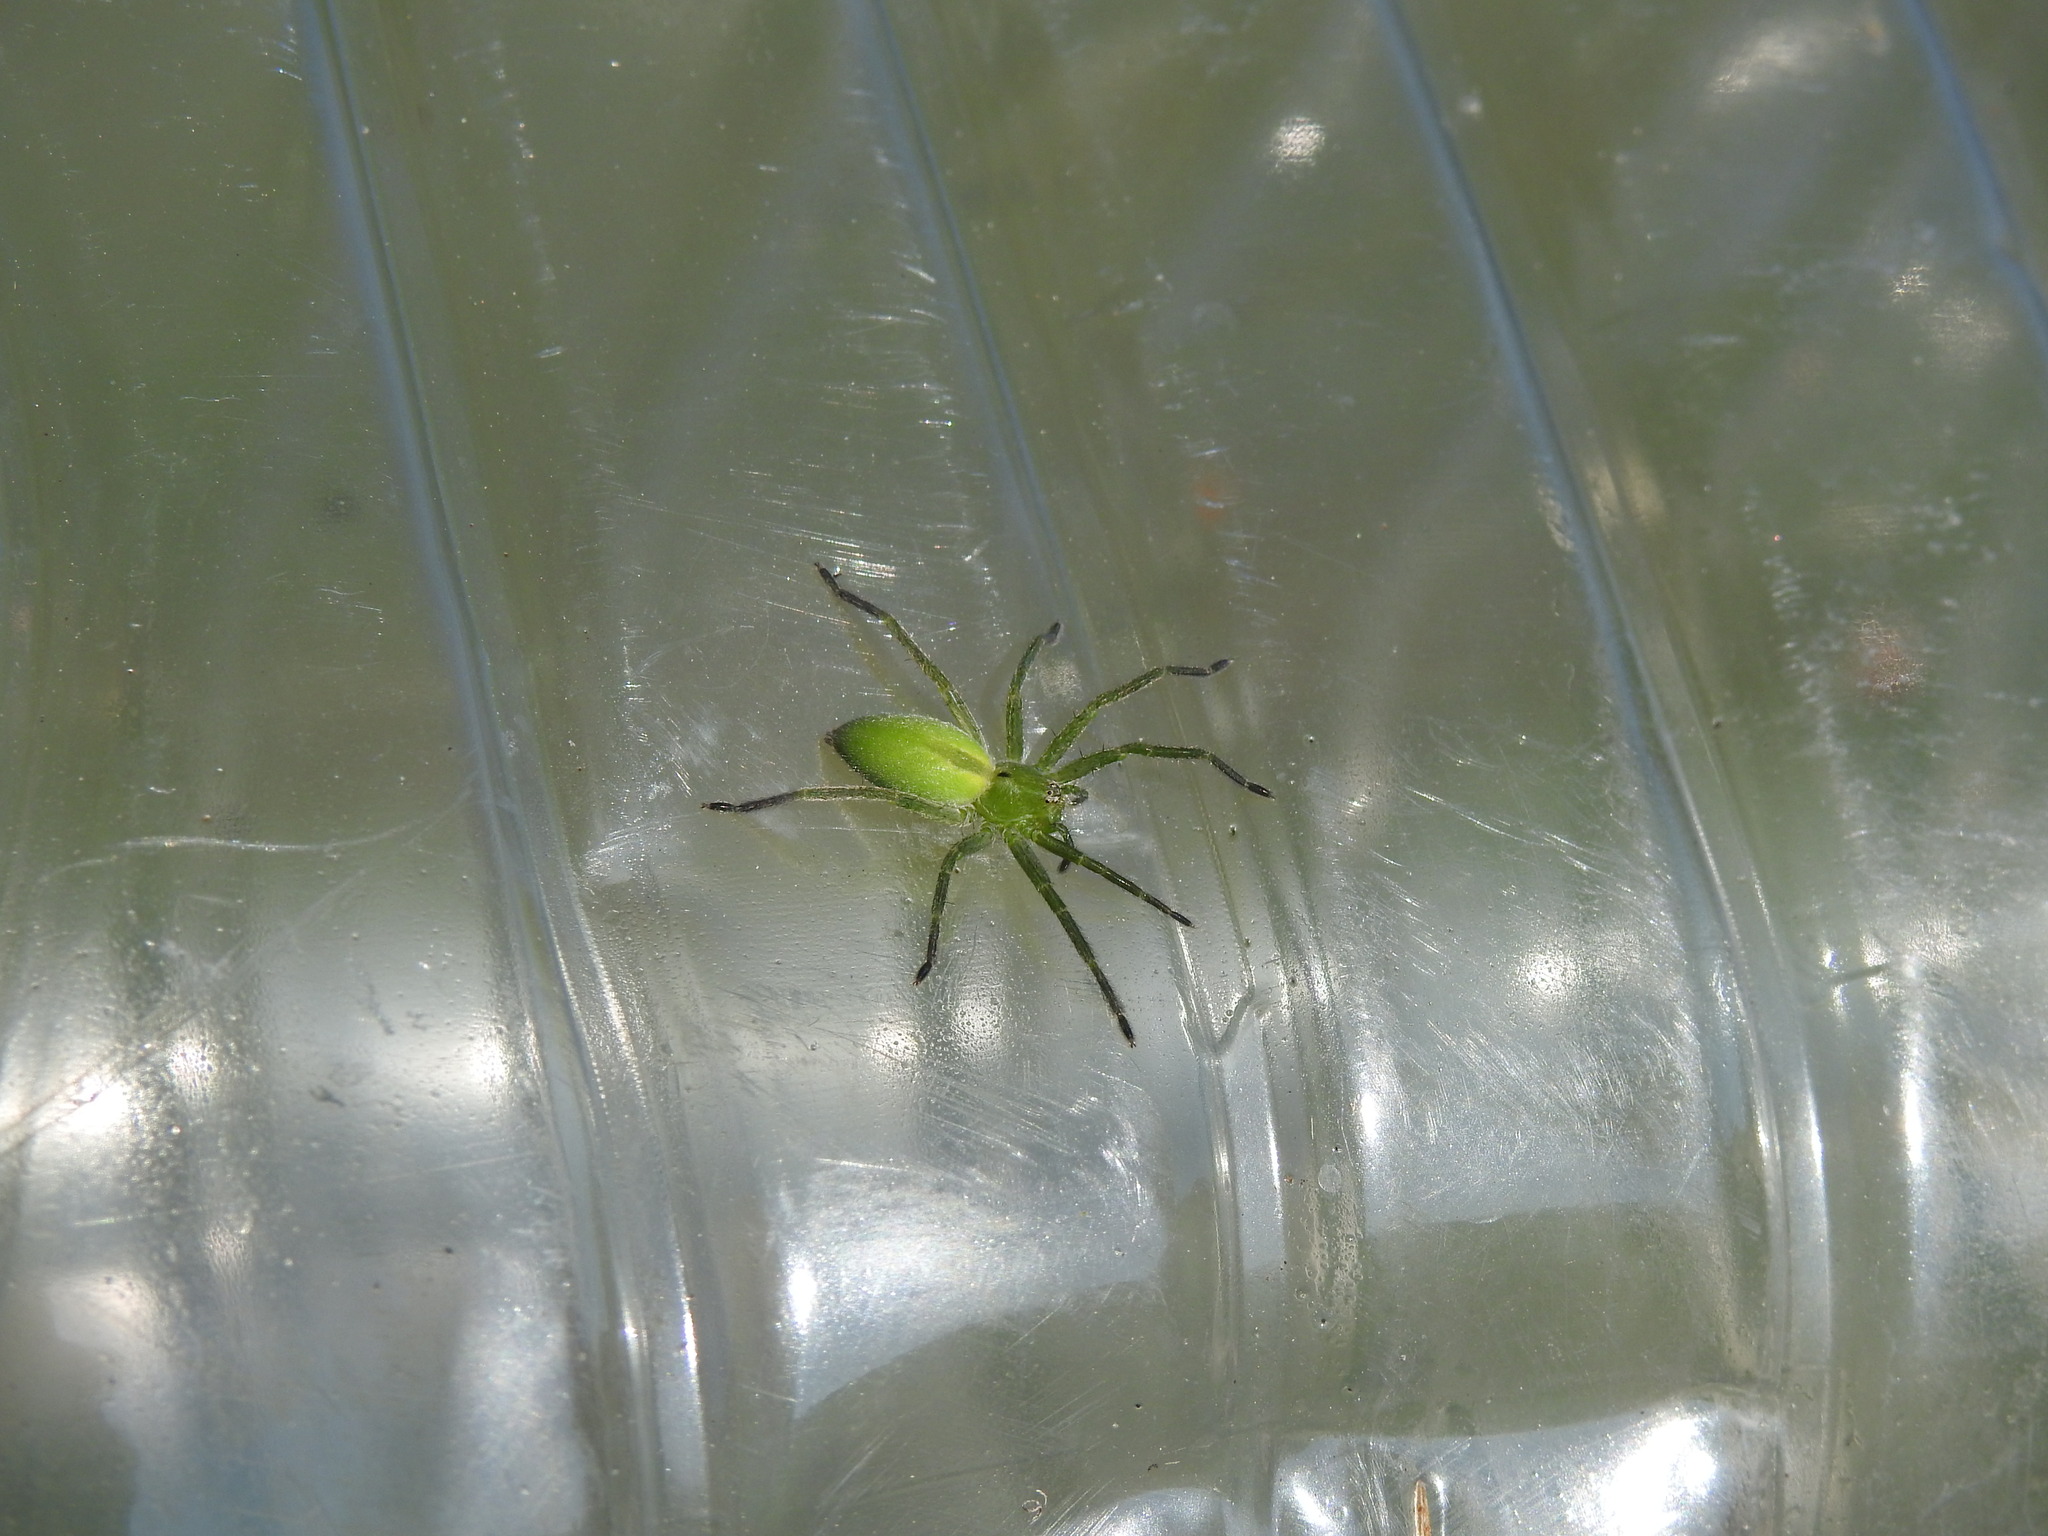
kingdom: Animalia
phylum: Arthropoda
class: Arachnida
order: Araneae
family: Sparassidae
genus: Micrommata
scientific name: Micrommata ligurina
